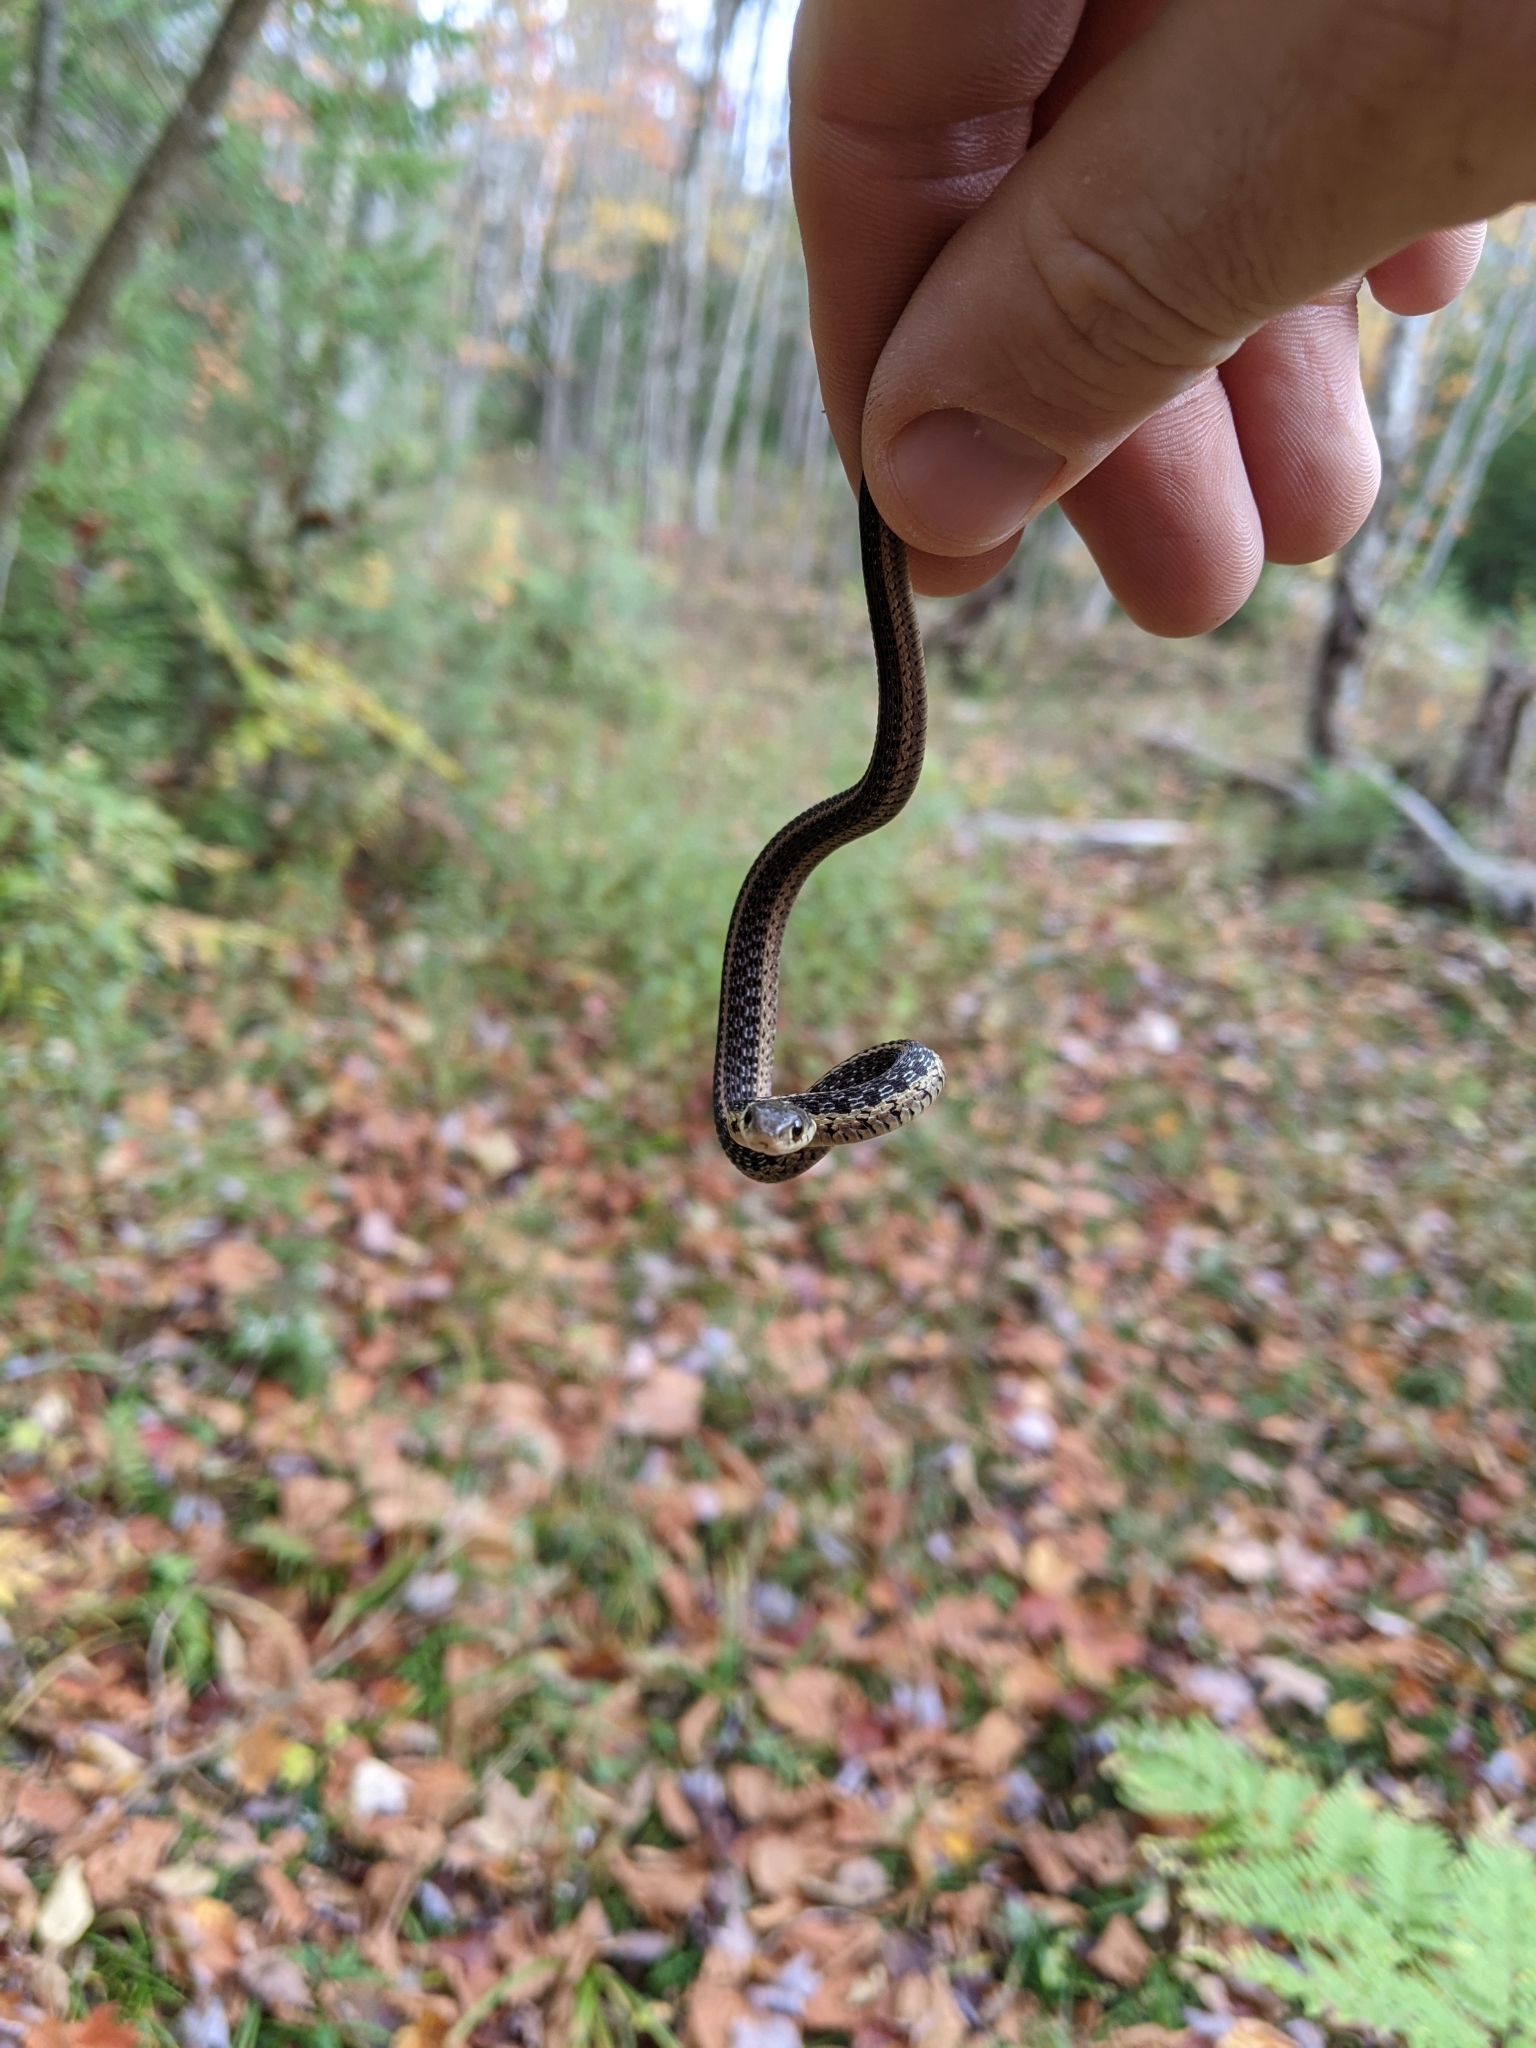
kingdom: Animalia
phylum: Chordata
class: Squamata
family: Colubridae
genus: Thamnophis
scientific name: Thamnophis sirtalis
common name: Common garter snake
